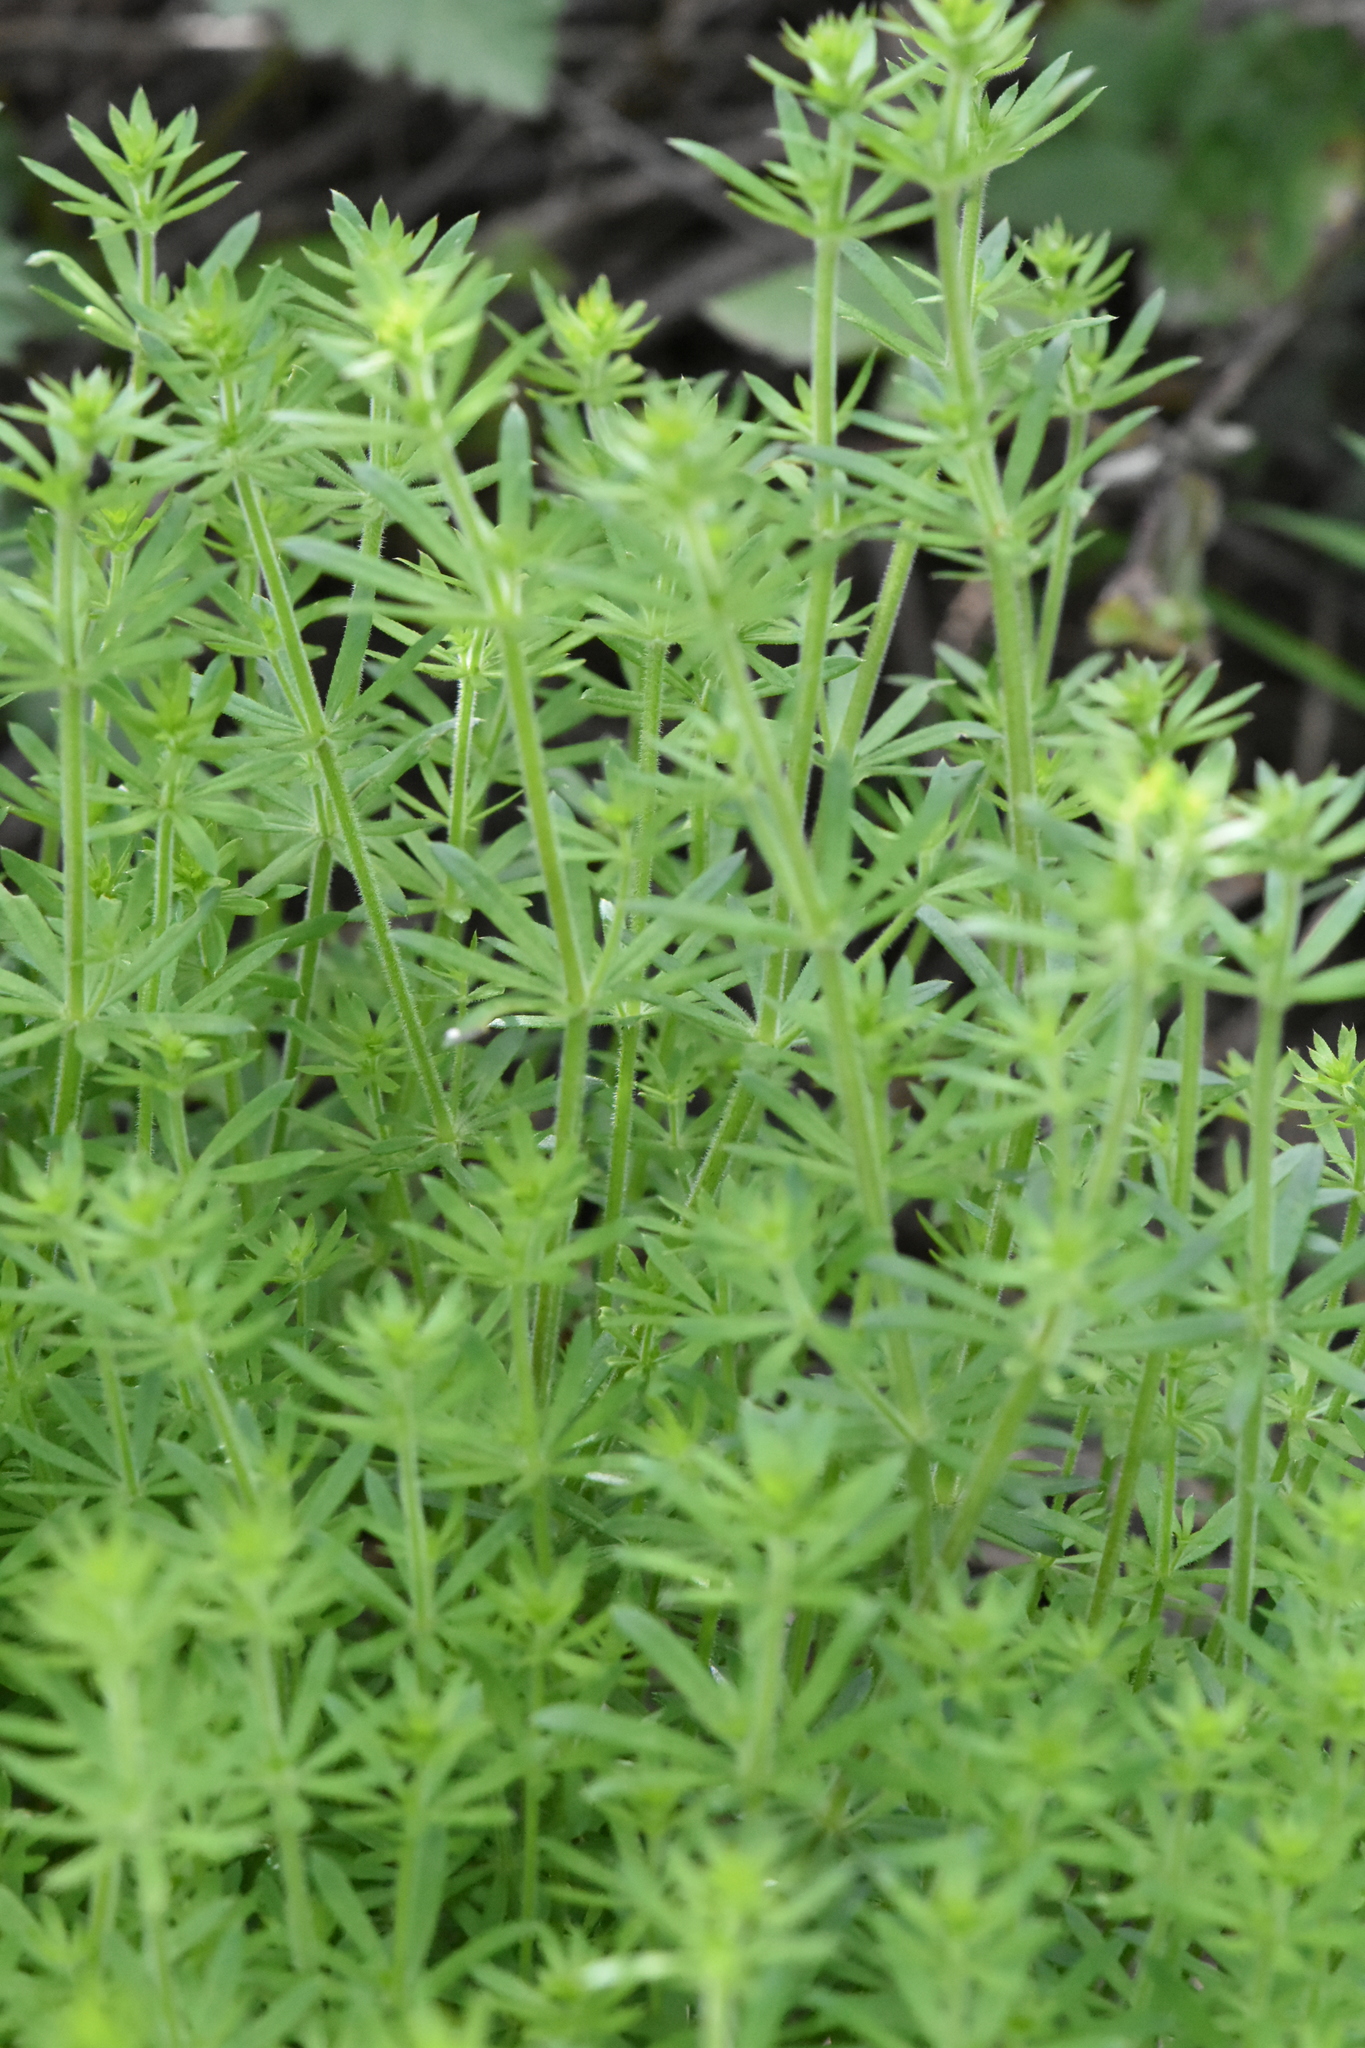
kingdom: Plantae
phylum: Tracheophyta
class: Magnoliopsida
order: Gentianales
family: Rubiaceae
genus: Galium
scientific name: Galium aparine
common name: Cleavers
